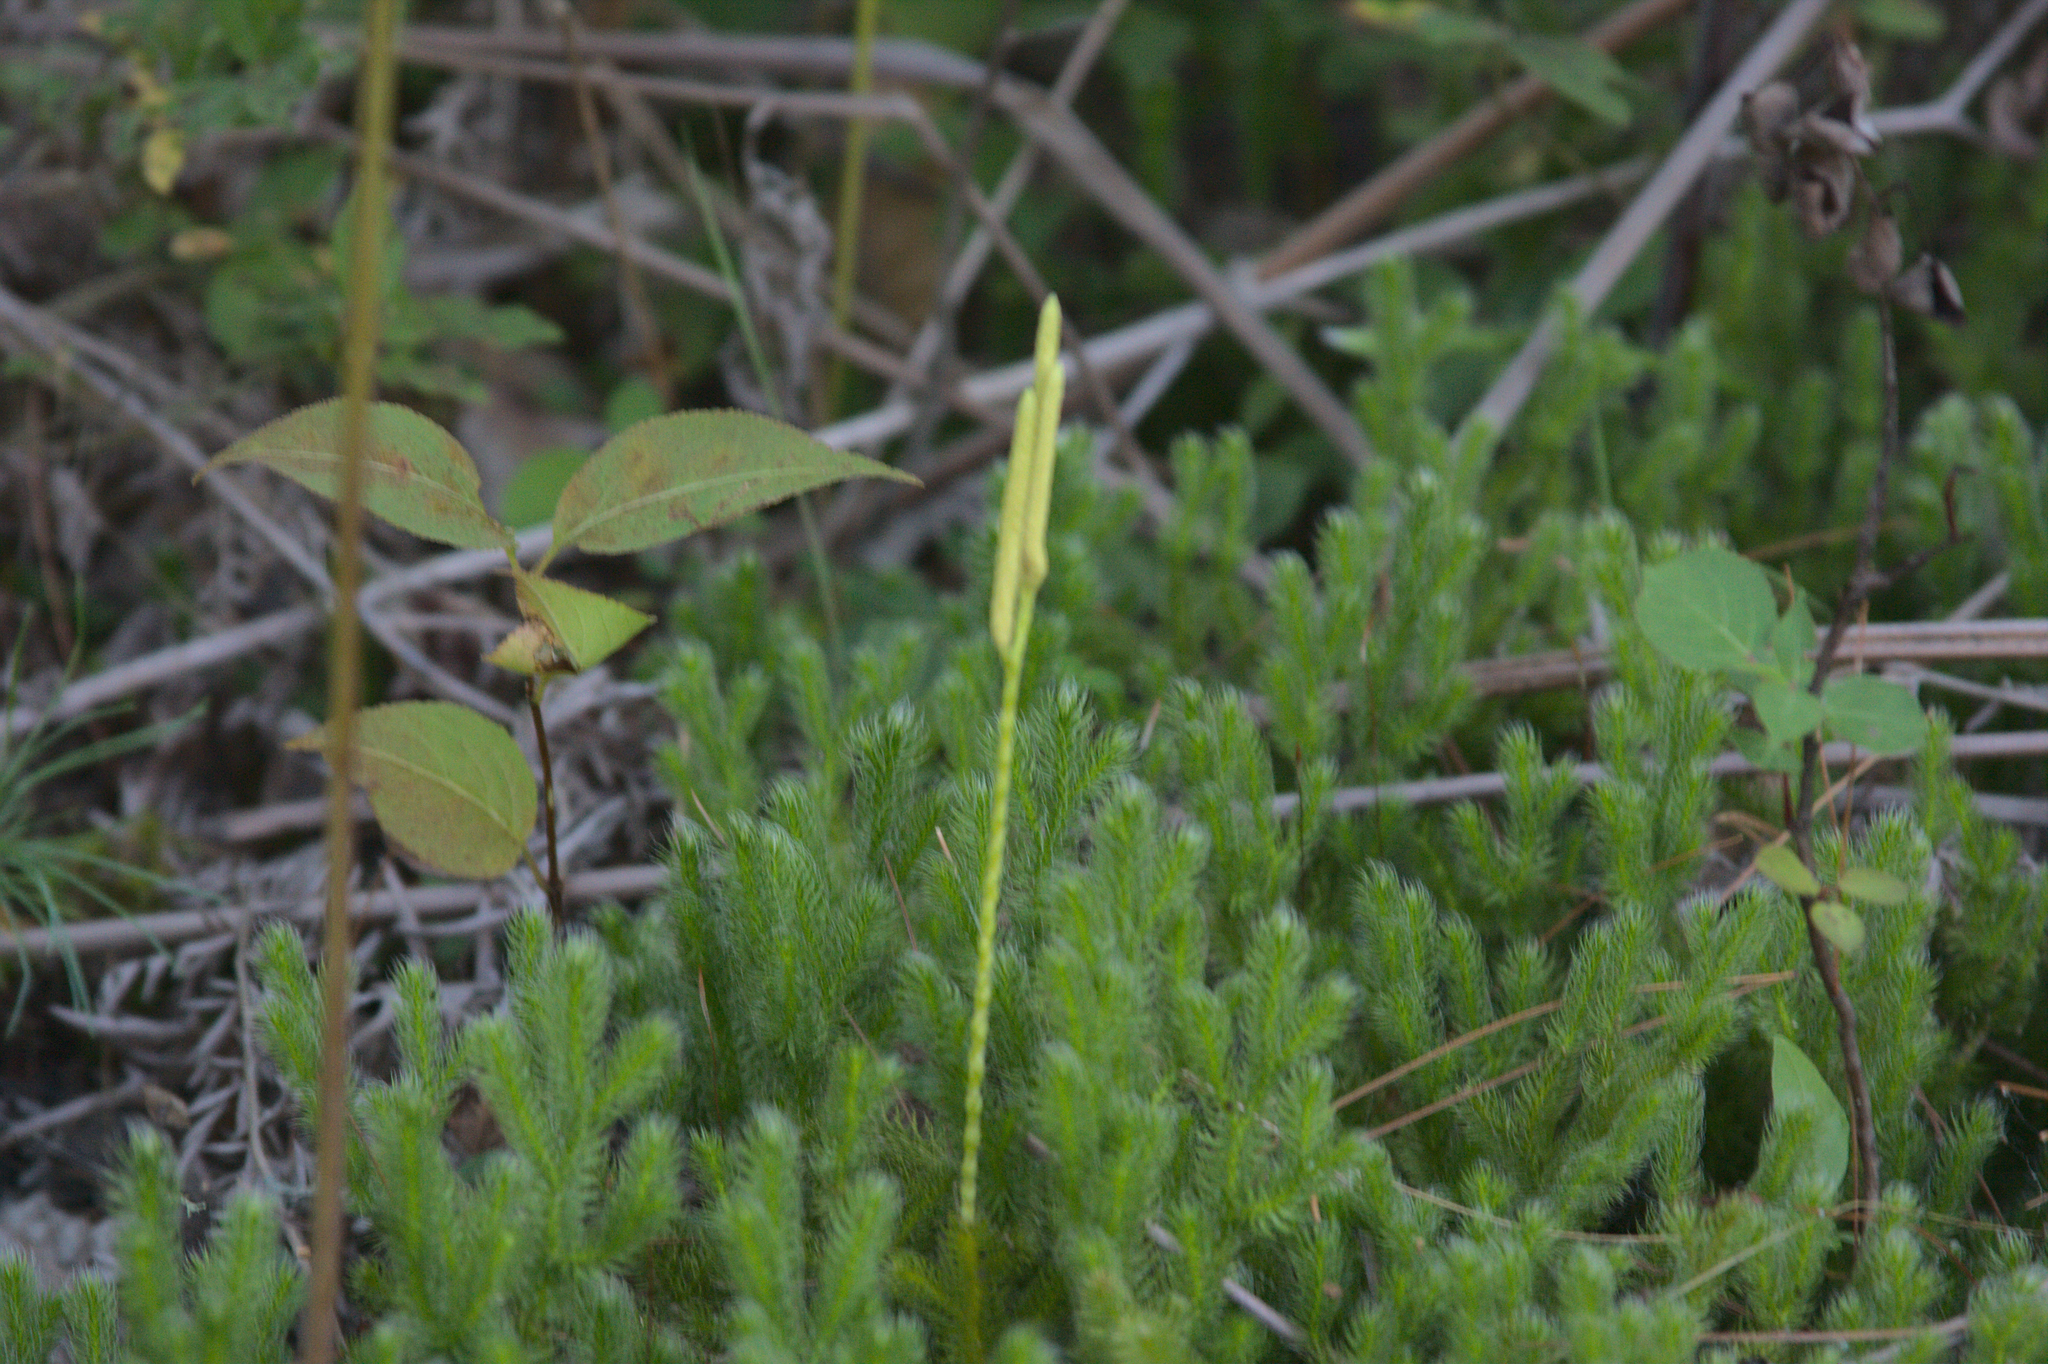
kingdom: Plantae
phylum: Tracheophyta
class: Lycopodiopsida
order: Lycopodiales
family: Lycopodiaceae
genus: Lycopodium
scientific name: Lycopodium clavatum
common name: Stag's-horn clubmoss
